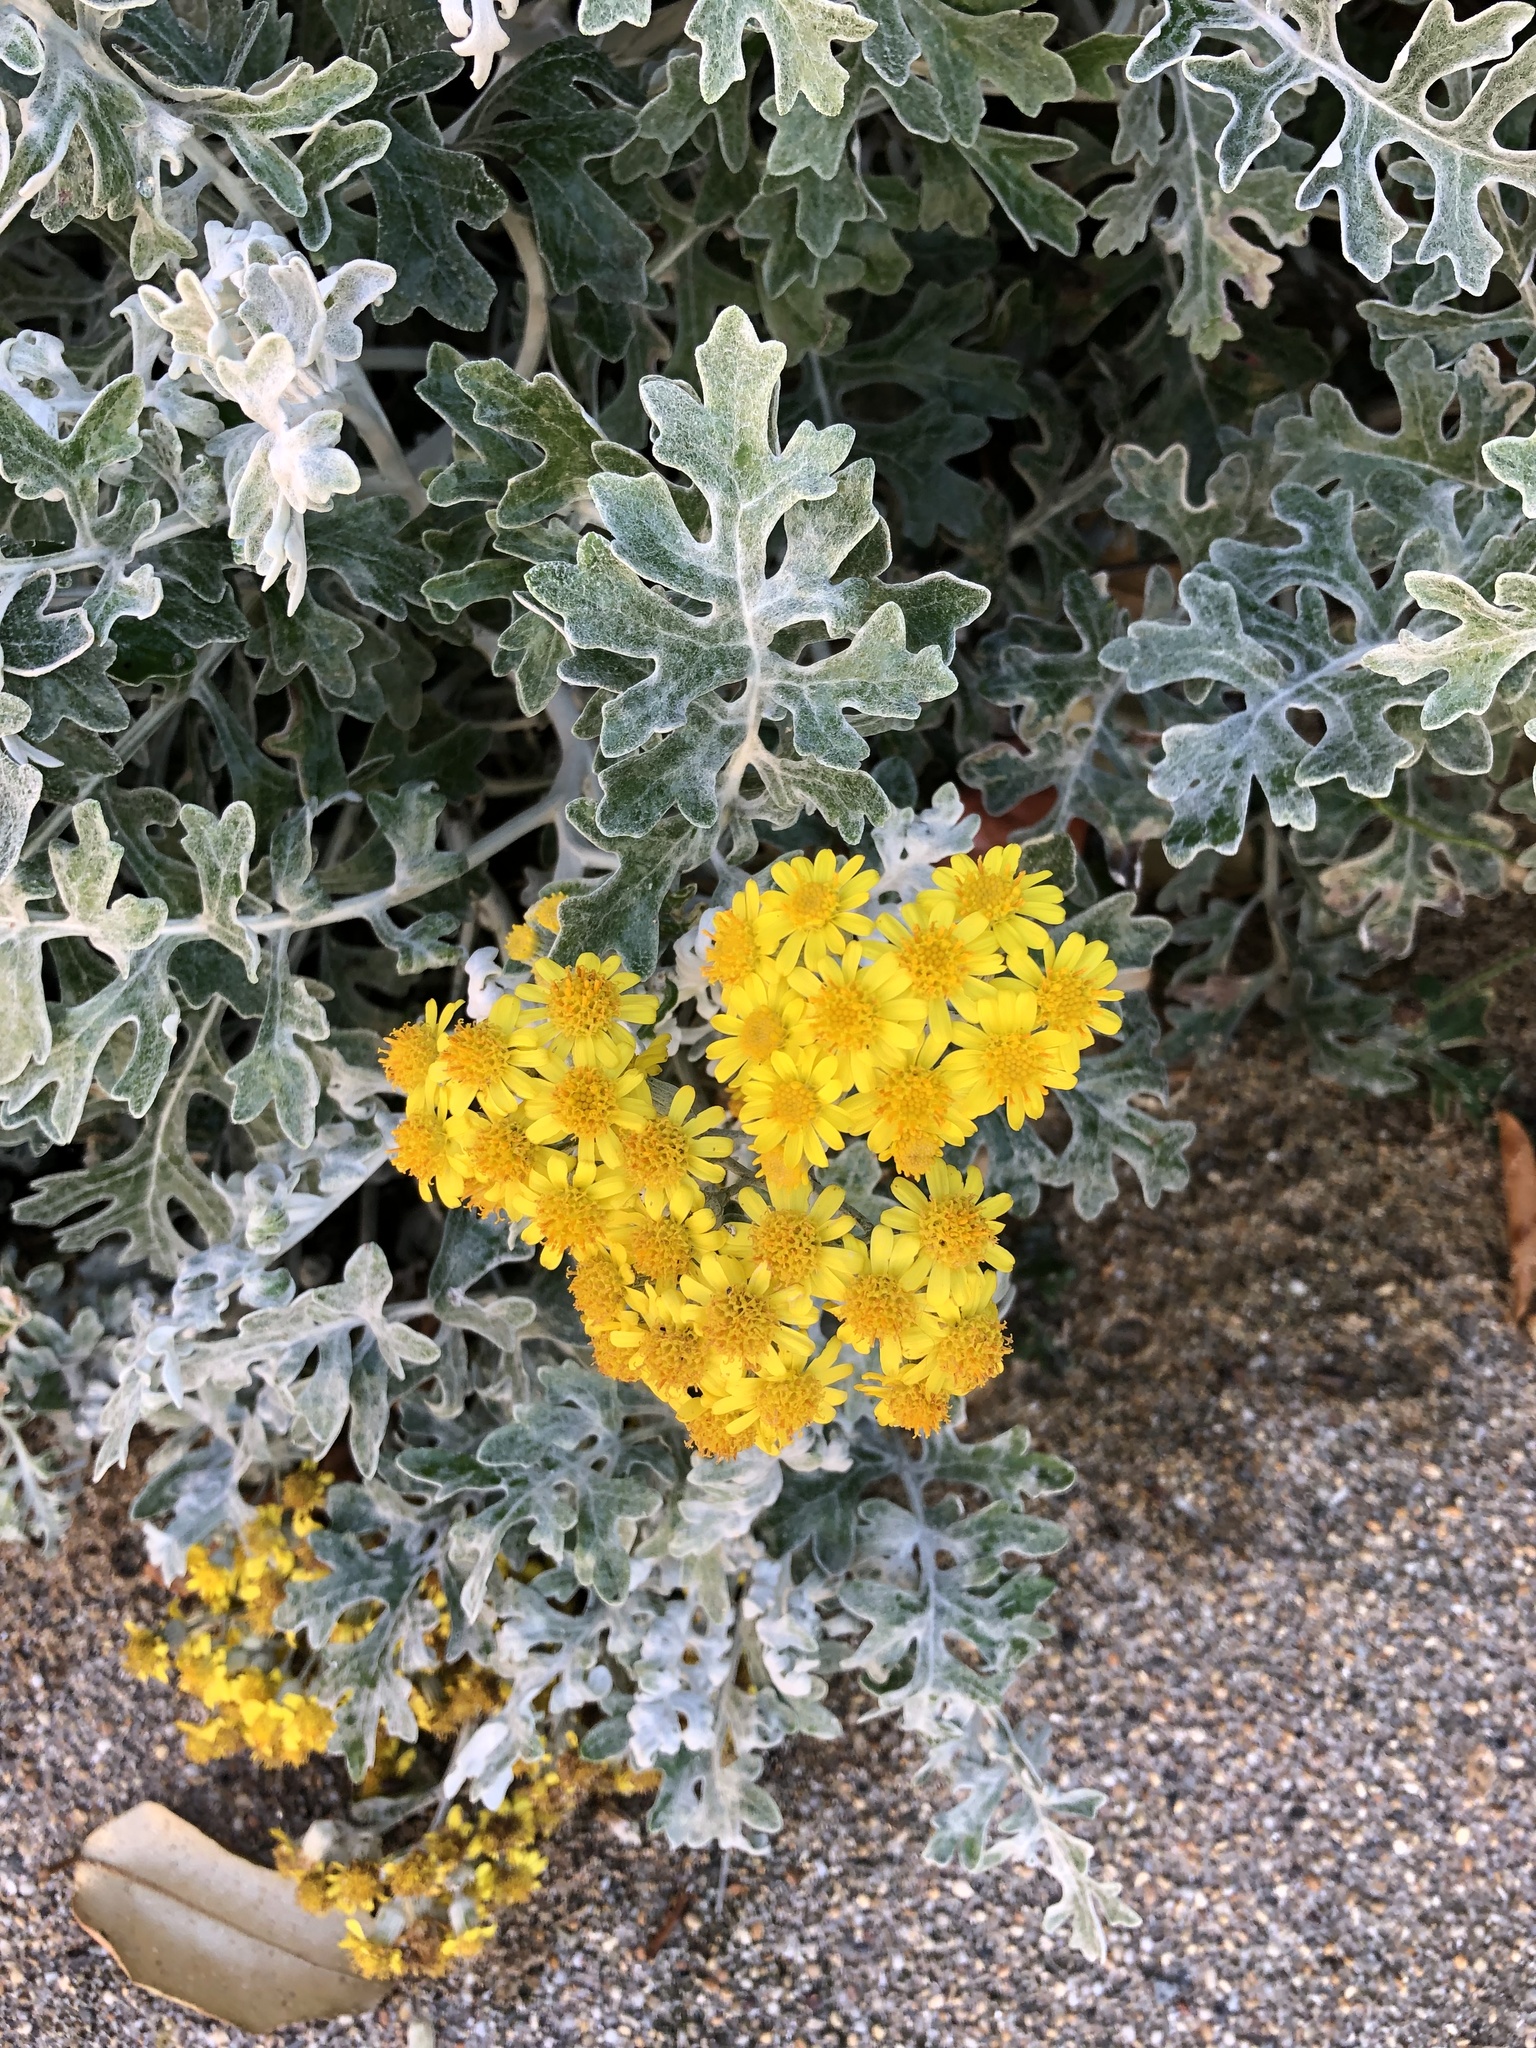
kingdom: Plantae
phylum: Tracheophyta
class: Magnoliopsida
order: Asterales
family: Asteraceae
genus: Jacobaea
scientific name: Jacobaea maritima
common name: Silver ragwort
